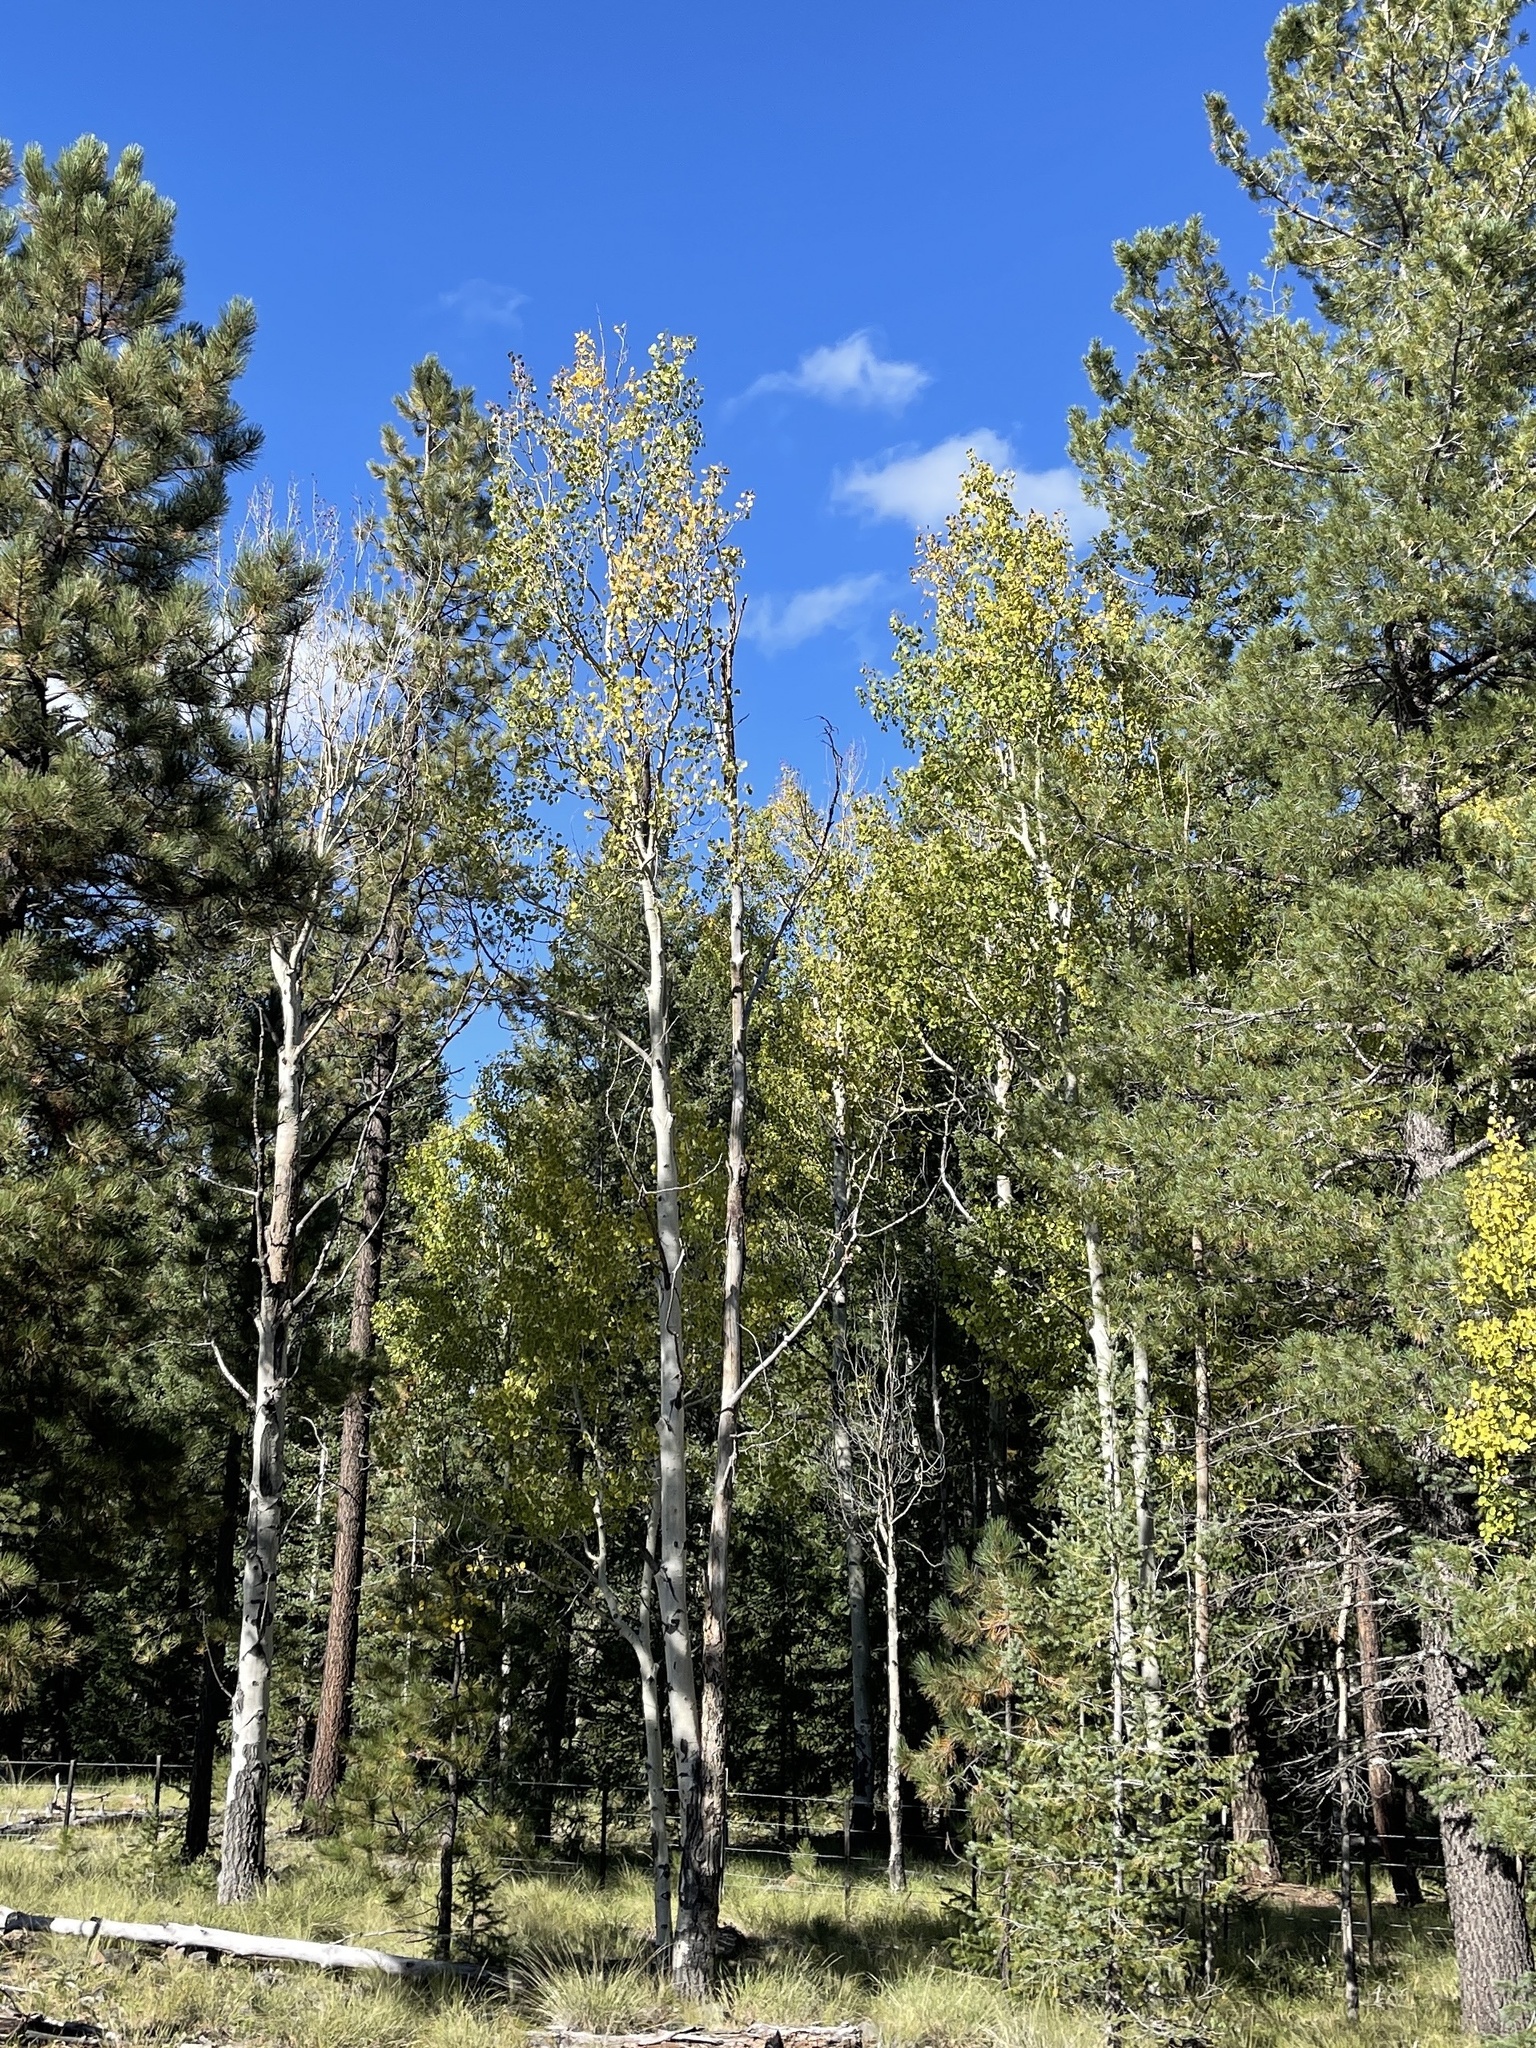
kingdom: Plantae
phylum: Tracheophyta
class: Magnoliopsida
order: Malpighiales
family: Salicaceae
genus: Populus
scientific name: Populus tremuloides
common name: Quaking aspen
